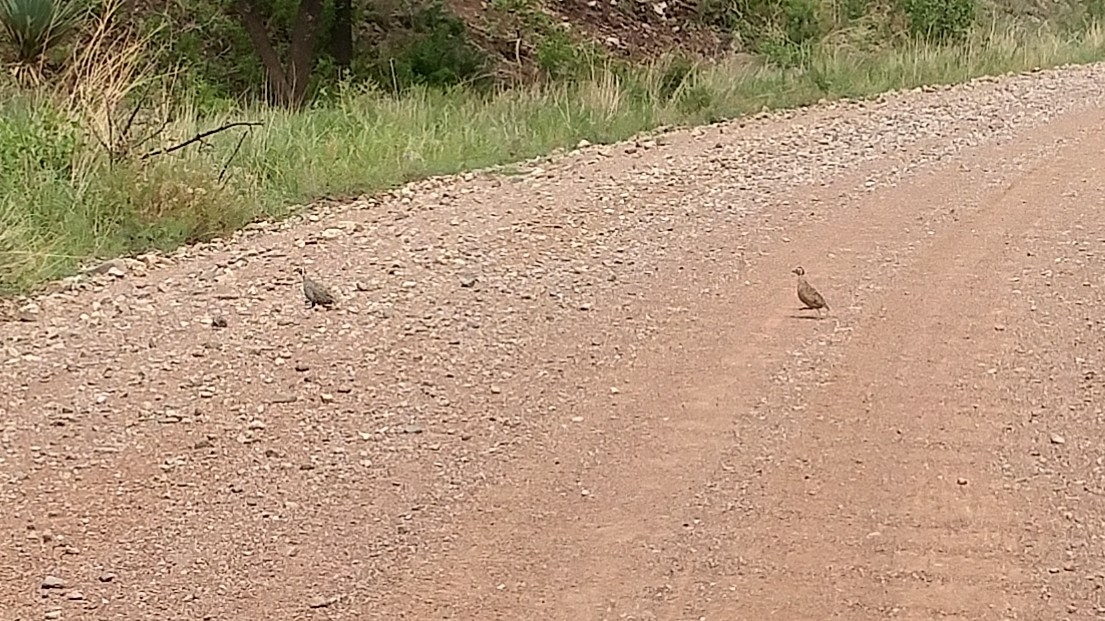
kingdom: Animalia
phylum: Chordata
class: Aves
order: Galliformes
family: Odontophoridae
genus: Cyrtonyx
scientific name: Cyrtonyx montezumae
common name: Montezuma quail
